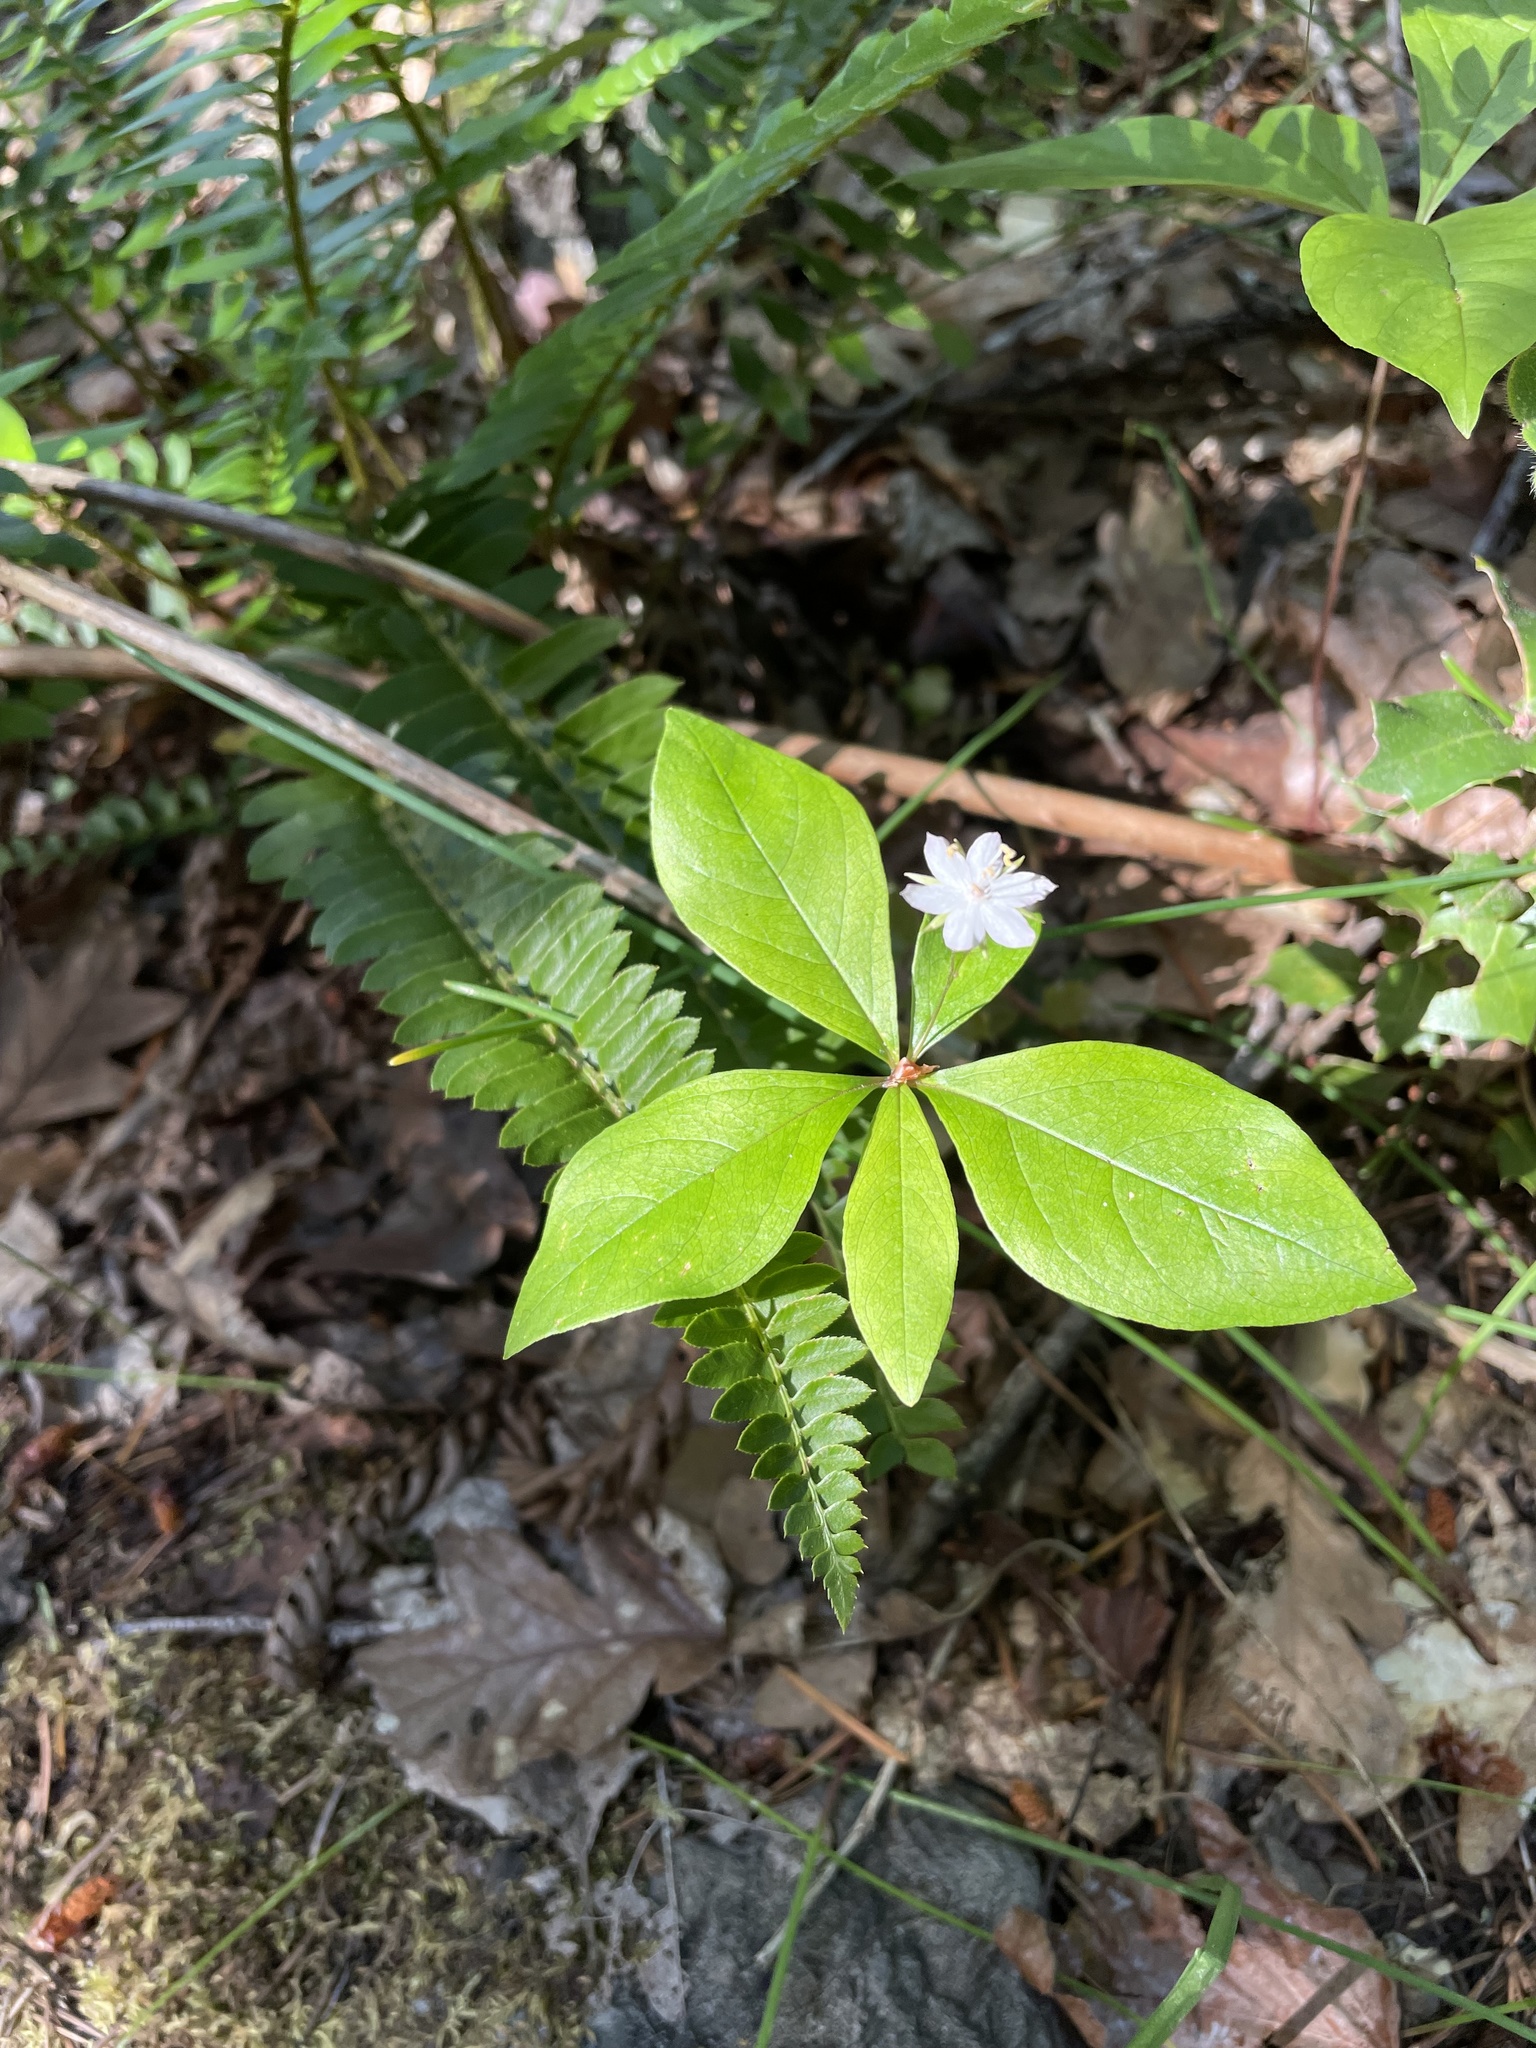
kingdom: Plantae
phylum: Tracheophyta
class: Magnoliopsida
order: Ericales
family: Primulaceae
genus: Lysimachia
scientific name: Lysimachia latifolia
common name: Pacific starflower
